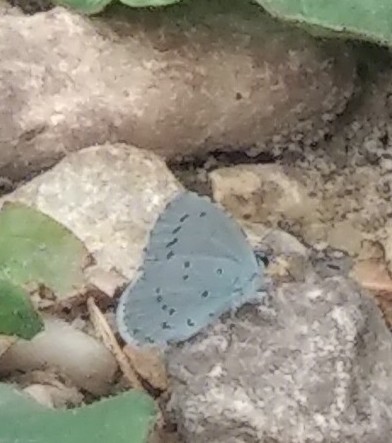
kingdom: Animalia
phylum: Arthropoda
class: Insecta
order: Lepidoptera
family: Lycaenidae
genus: Celastrina
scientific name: Celastrina argiolus
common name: Holly blue
